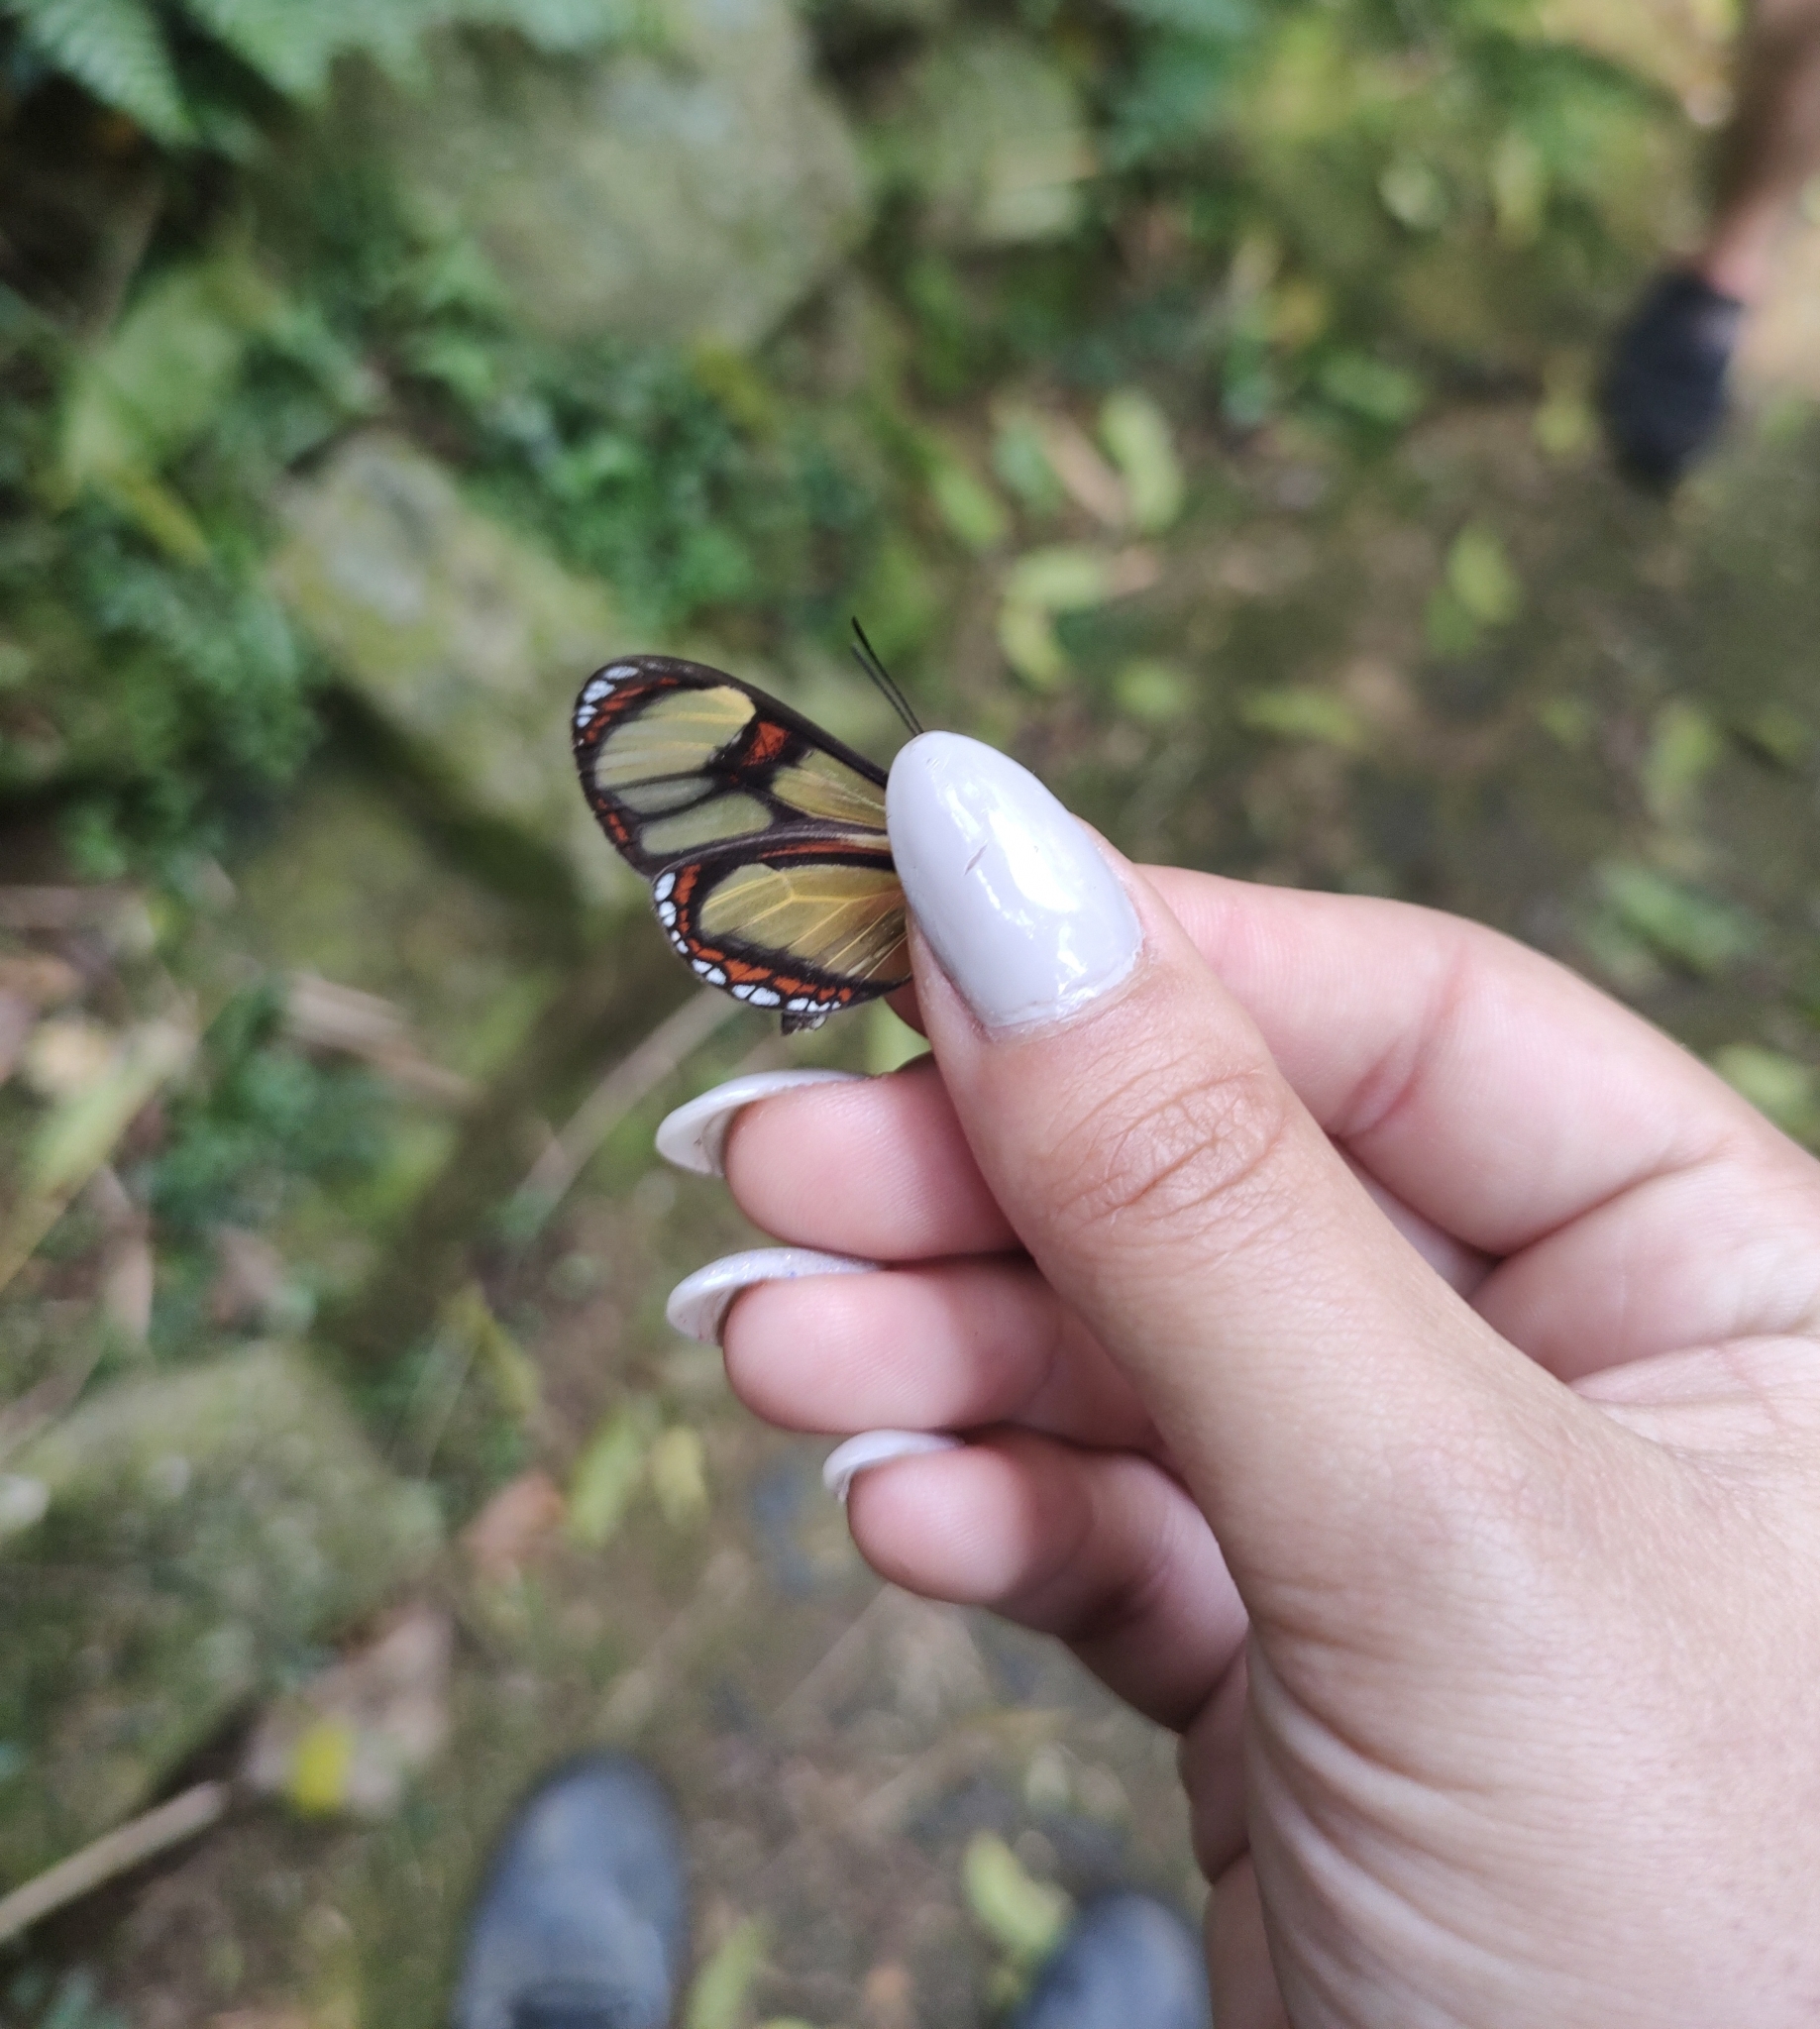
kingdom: Animalia
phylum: Arthropoda
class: Insecta
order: Lepidoptera
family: Nymphalidae
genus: Epityches
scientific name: Epityches eupompe
